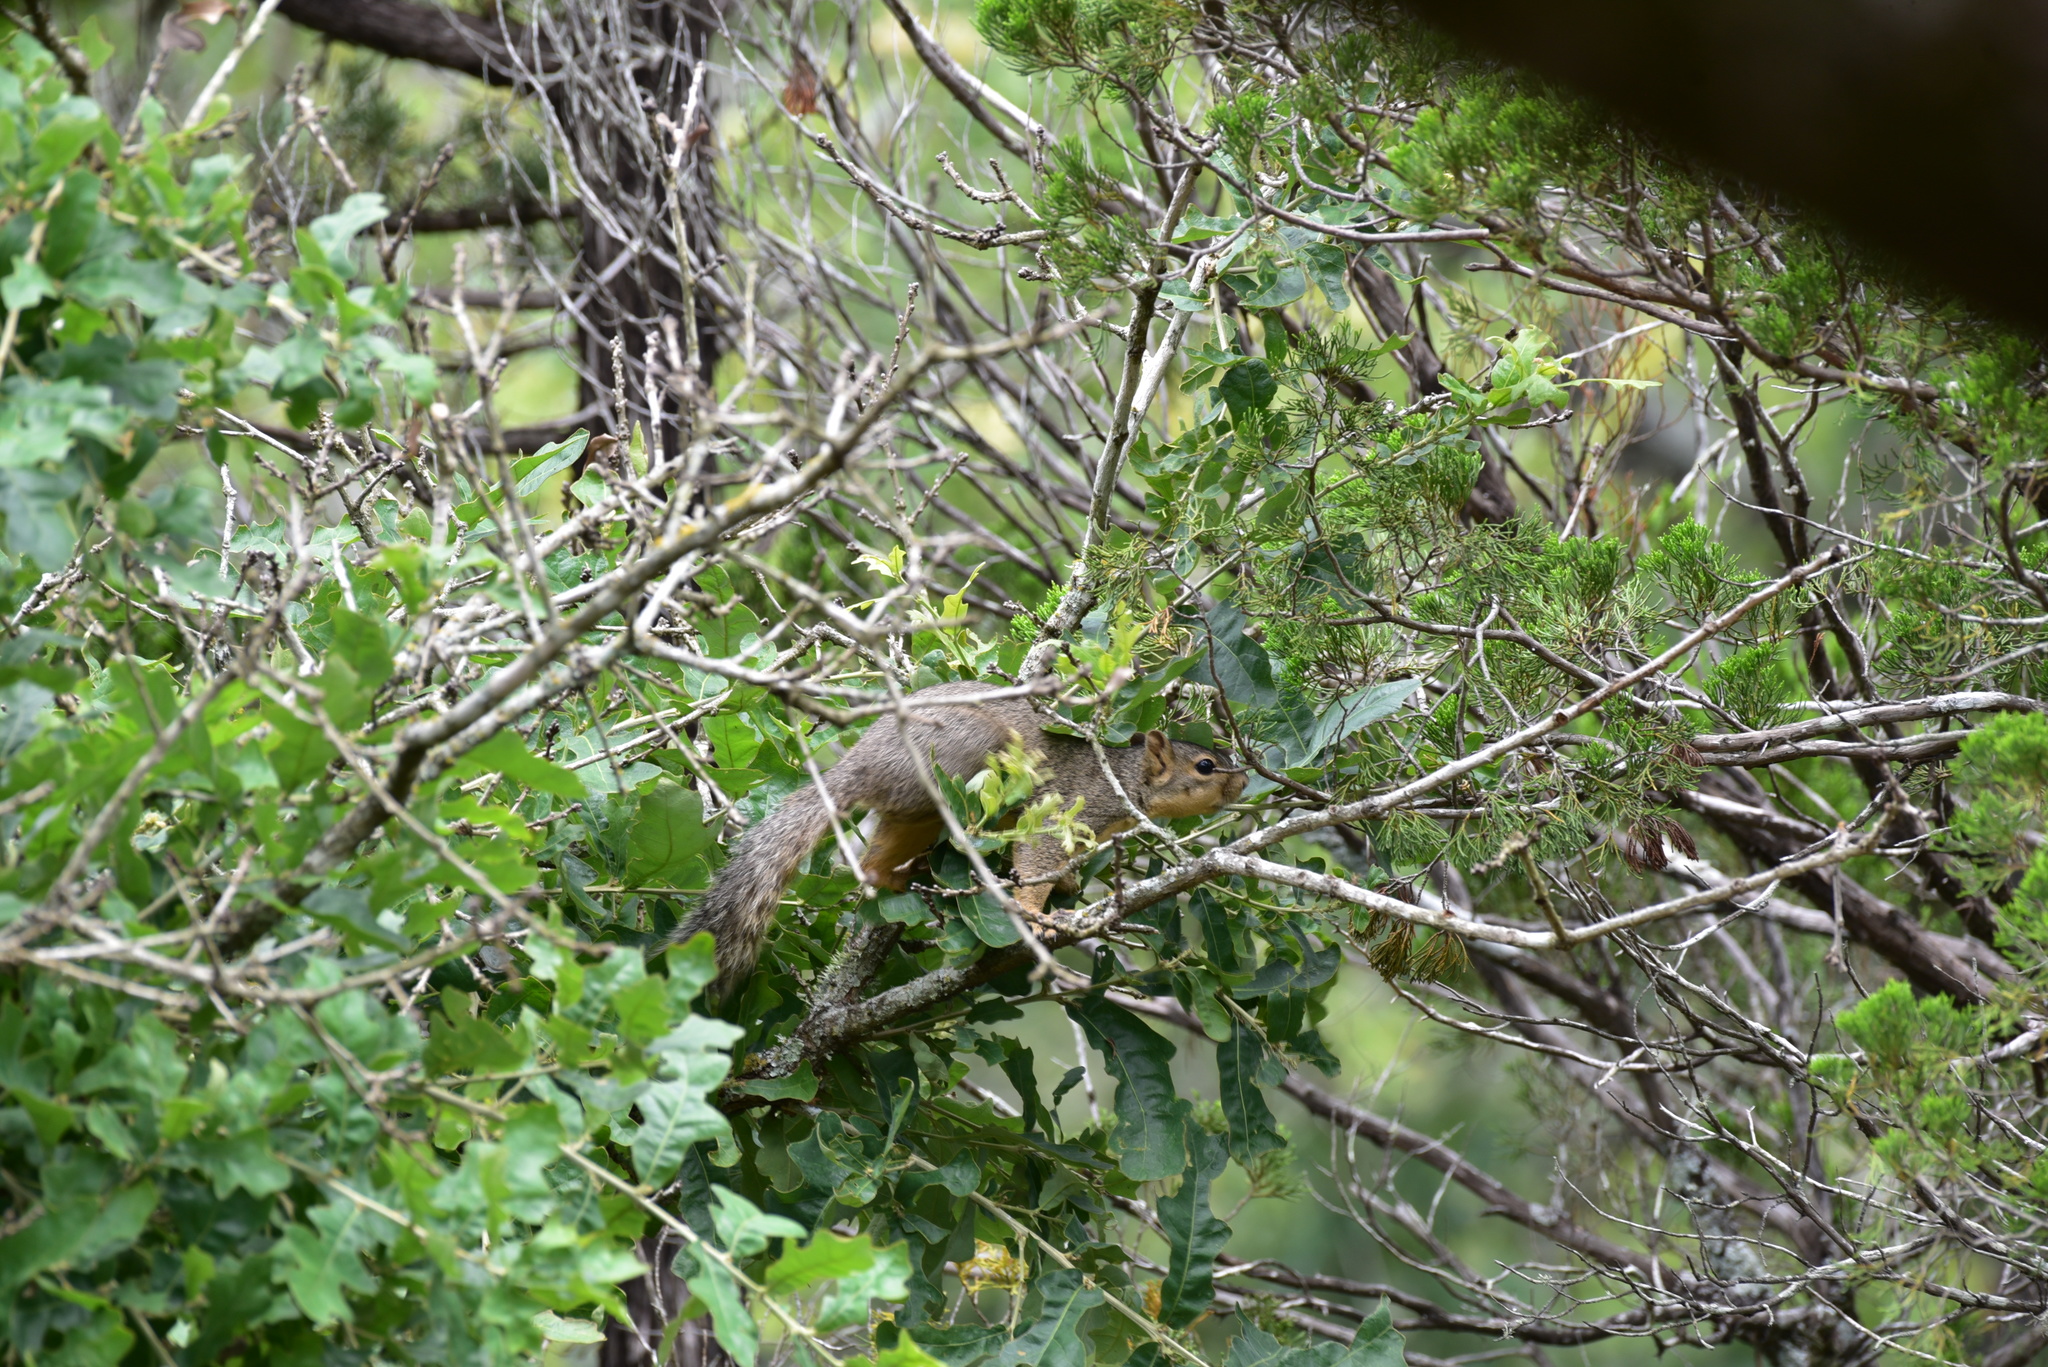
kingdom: Animalia
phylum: Chordata
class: Mammalia
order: Rodentia
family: Sciuridae
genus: Sciurus
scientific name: Sciurus niger
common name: Fox squirrel
